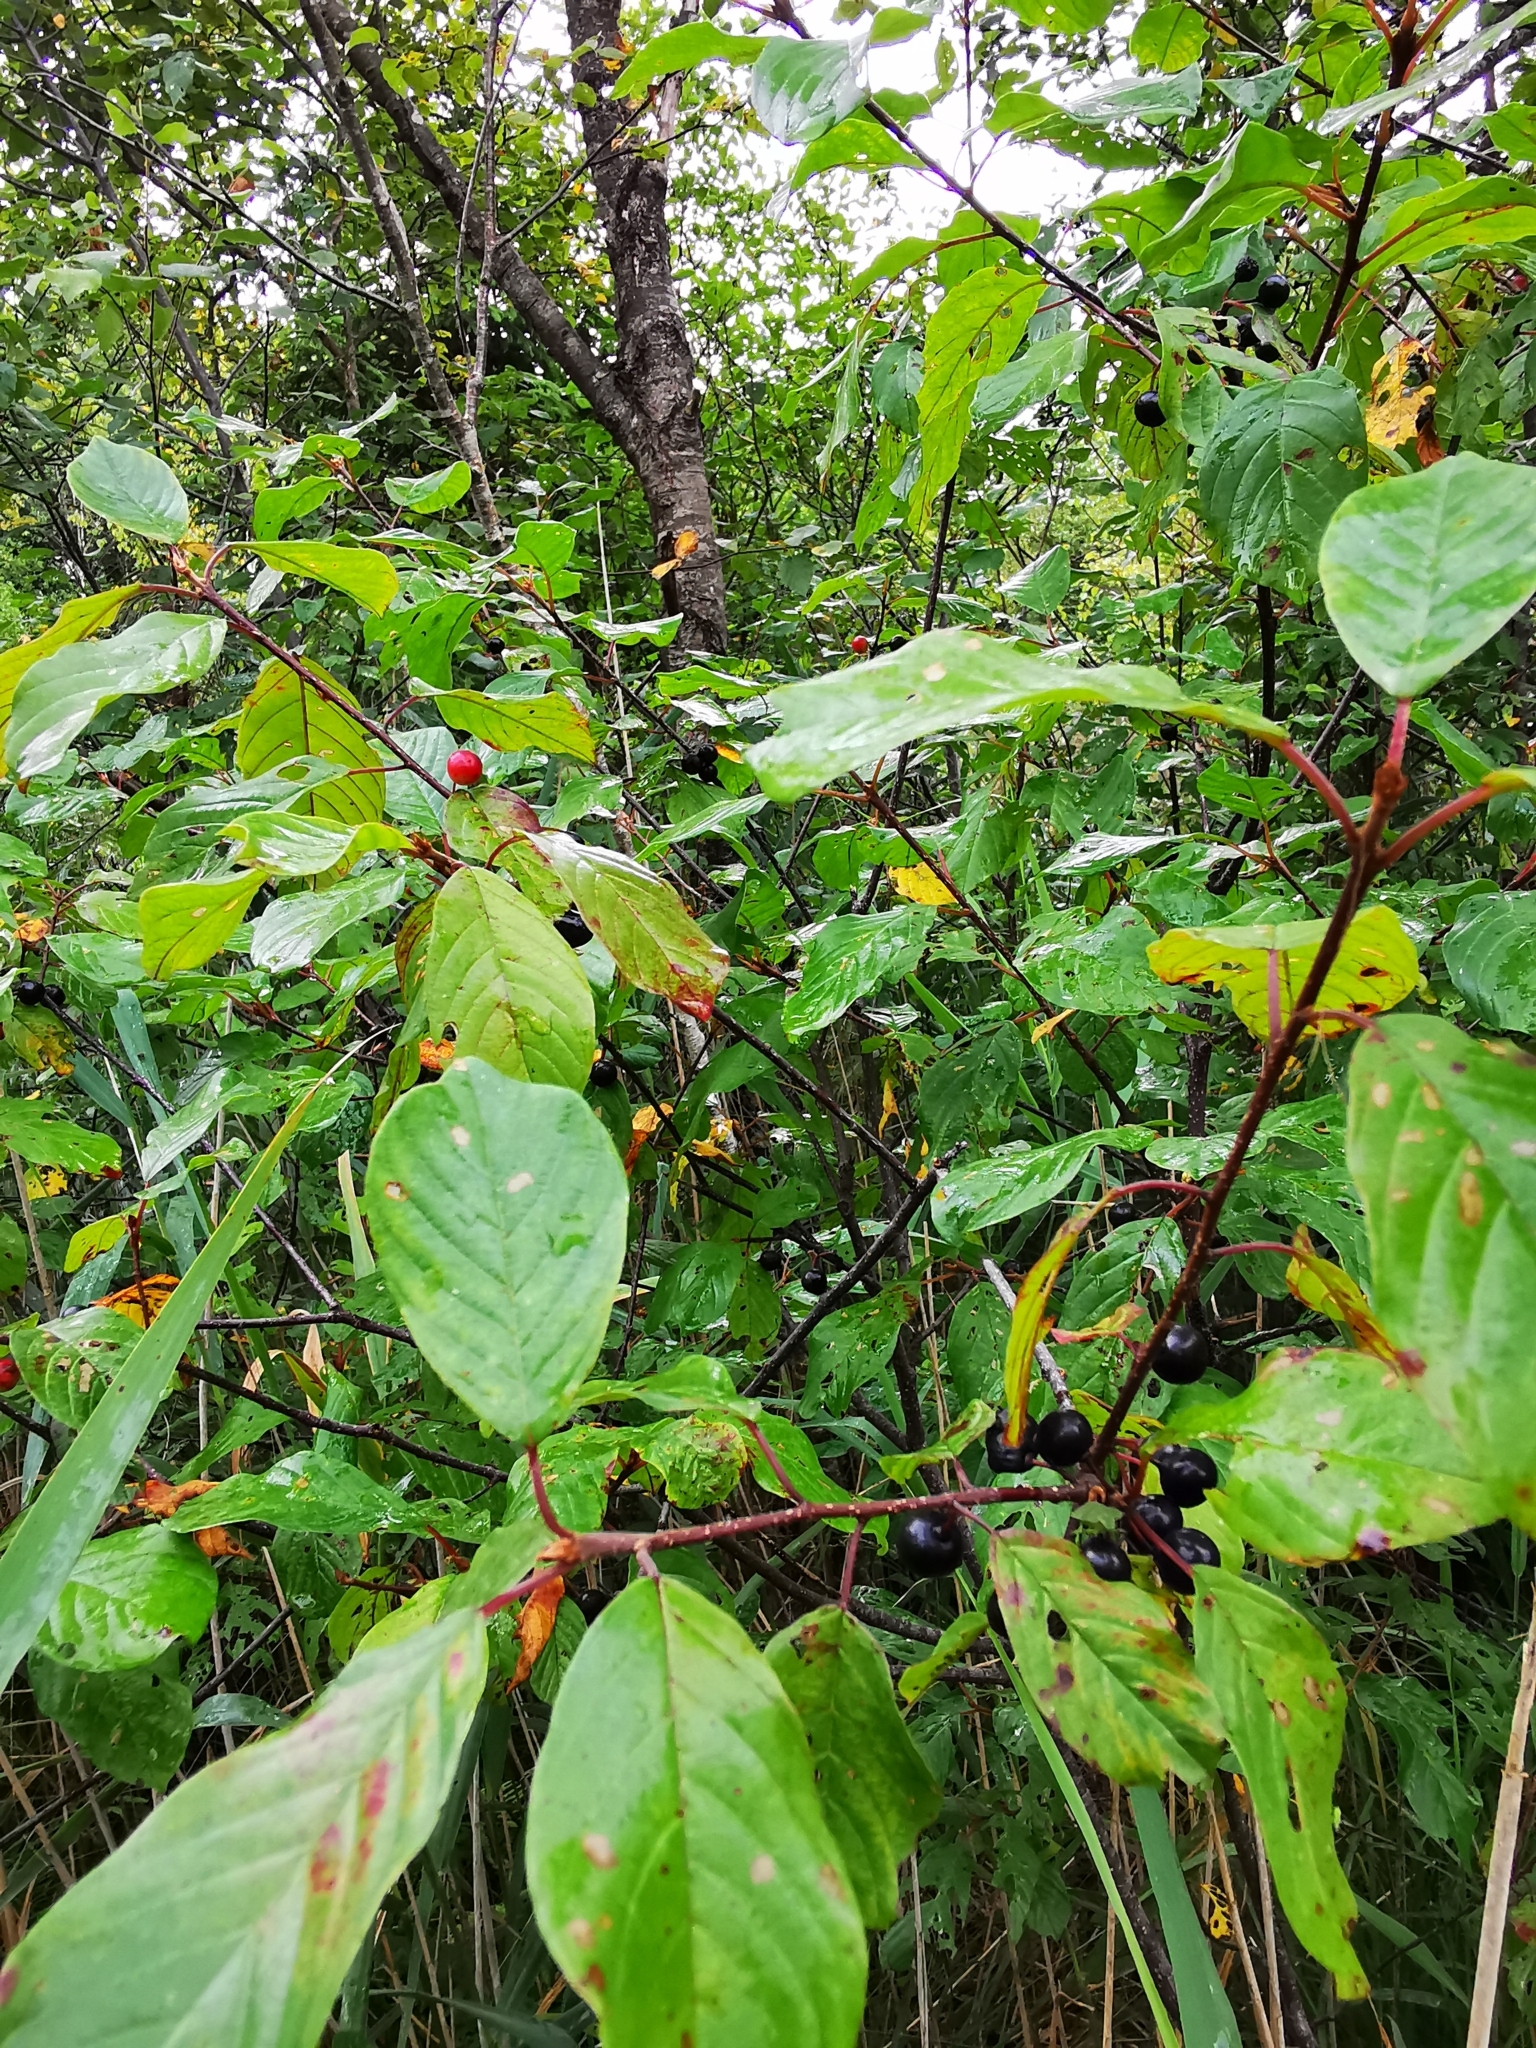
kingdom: Plantae
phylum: Tracheophyta
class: Magnoliopsida
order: Rosales
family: Rhamnaceae
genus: Frangula
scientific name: Frangula alnus
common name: Alder buckthorn
